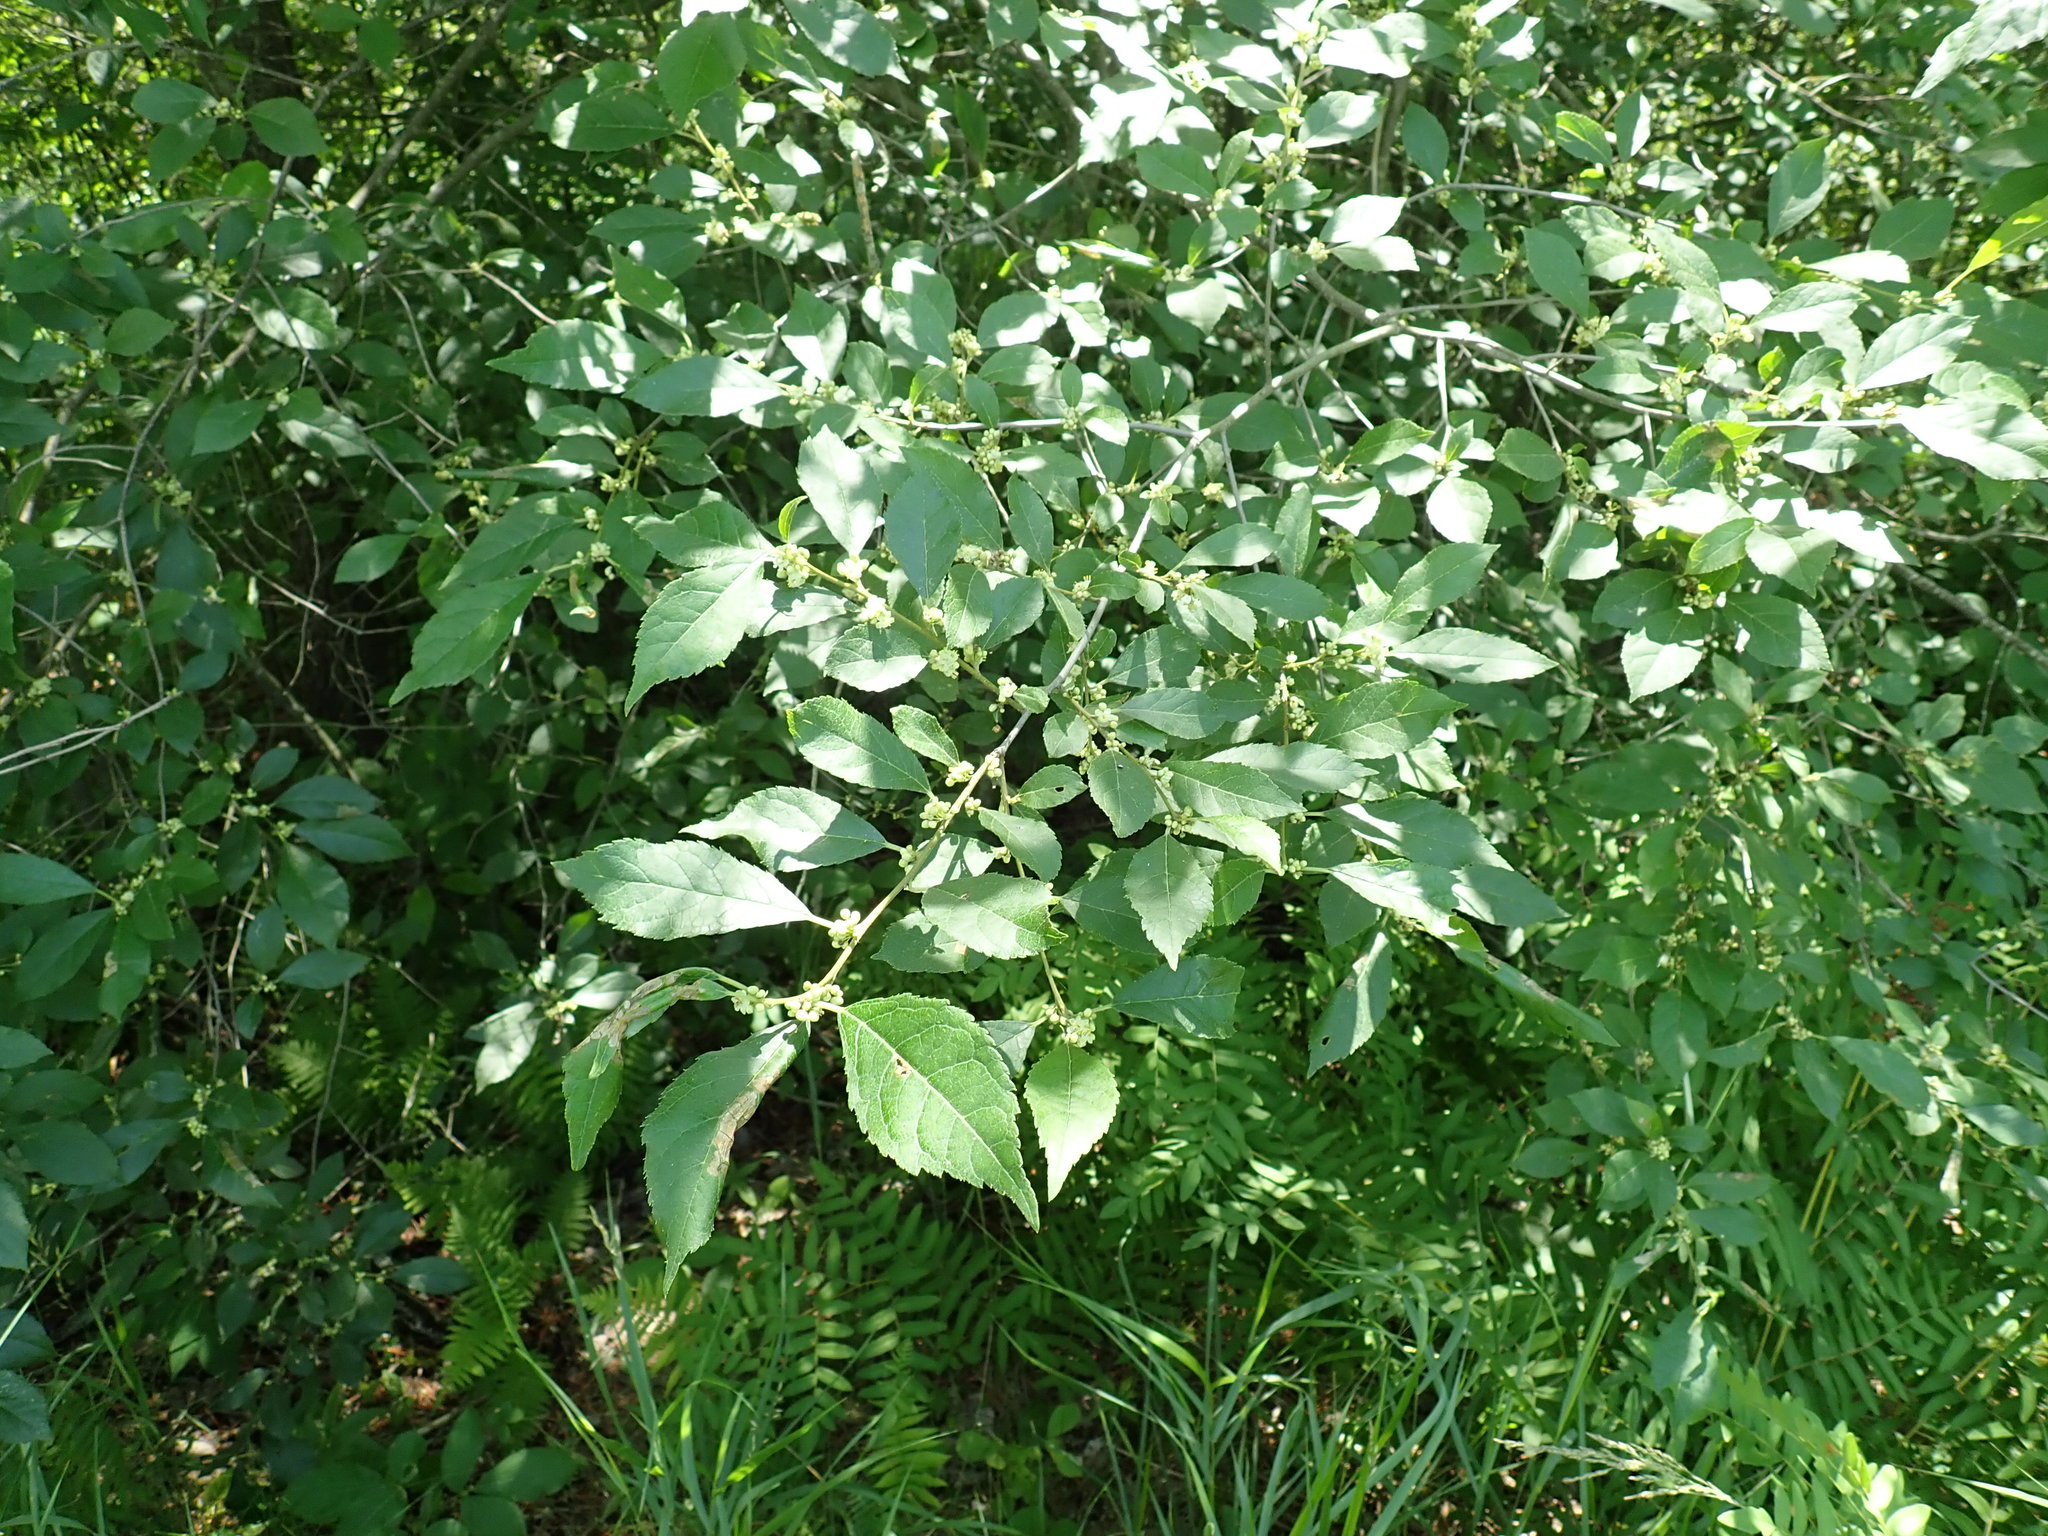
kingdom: Plantae
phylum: Tracheophyta
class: Magnoliopsida
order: Aquifoliales
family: Aquifoliaceae
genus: Ilex
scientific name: Ilex verticillata
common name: Virginia winterberry
